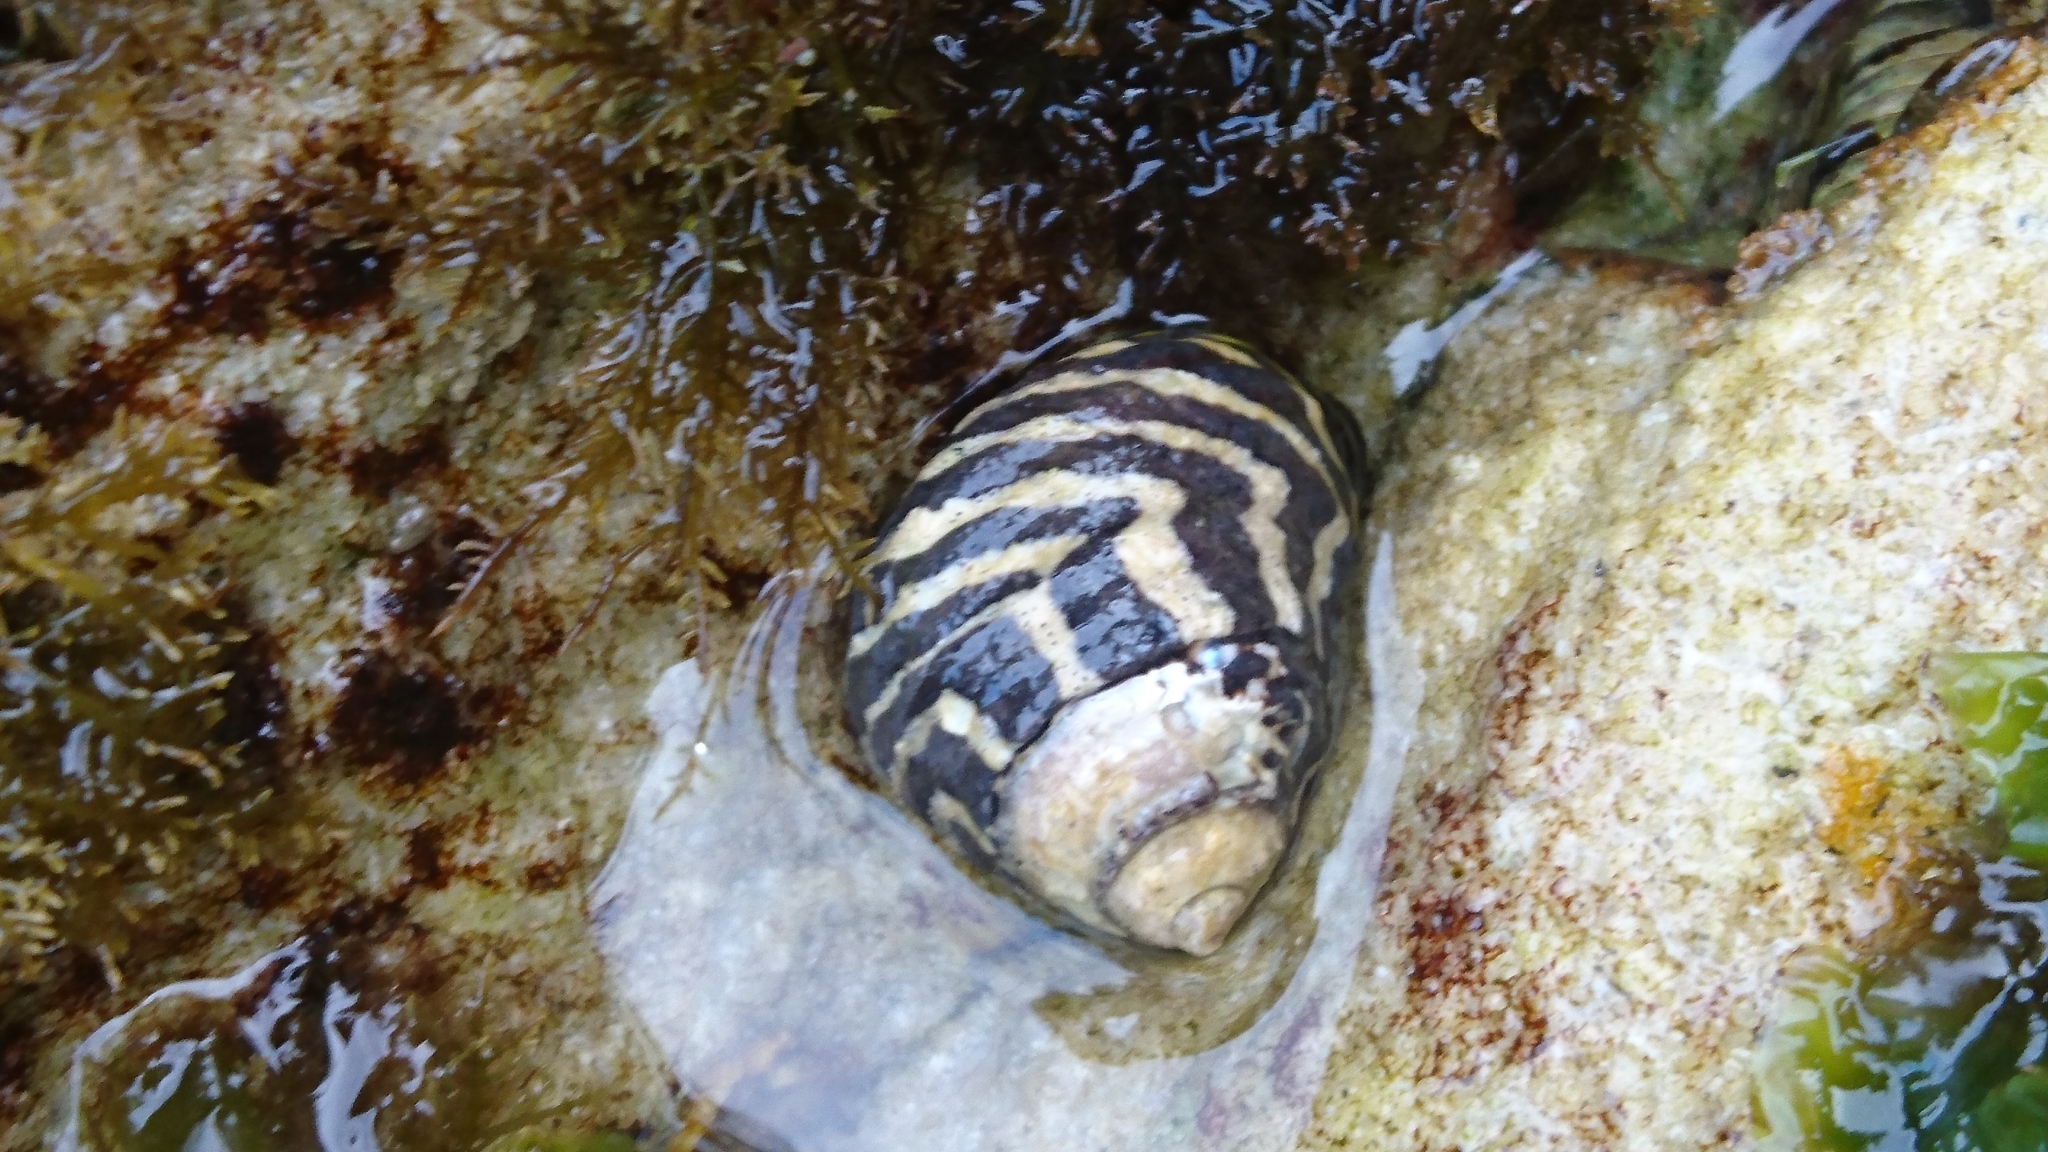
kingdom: Animalia
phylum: Mollusca
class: Gastropoda
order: Trochida
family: Trochidae
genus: Austrocochlea
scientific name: Austrocochlea porcata
